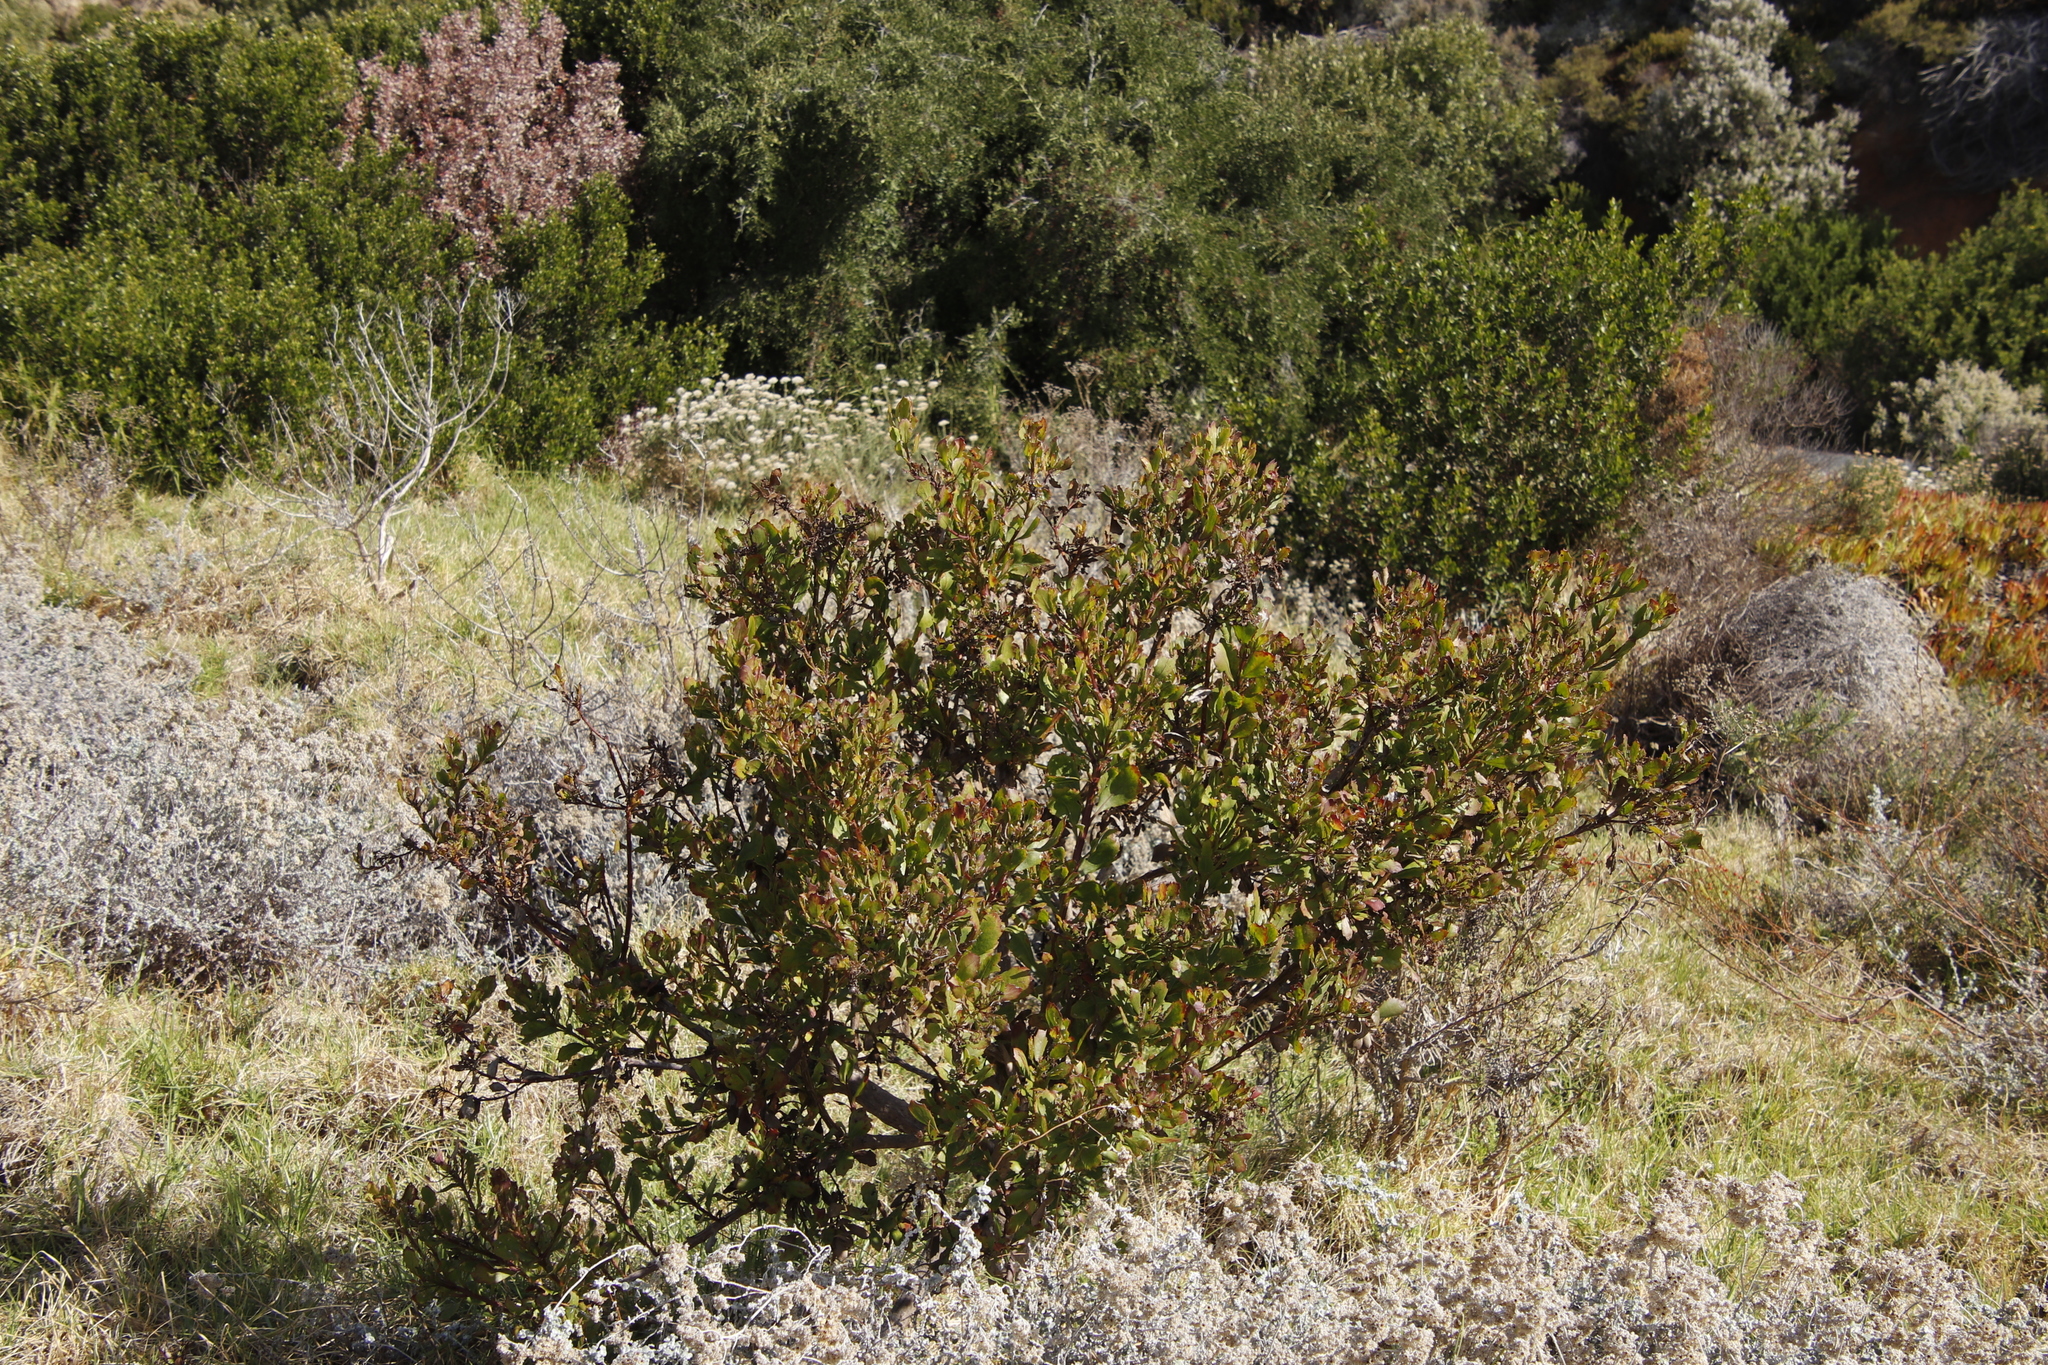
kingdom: Plantae
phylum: Tracheophyta
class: Magnoliopsida
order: Asterales
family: Asteraceae
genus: Osteospermum
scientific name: Osteospermum moniliferum
